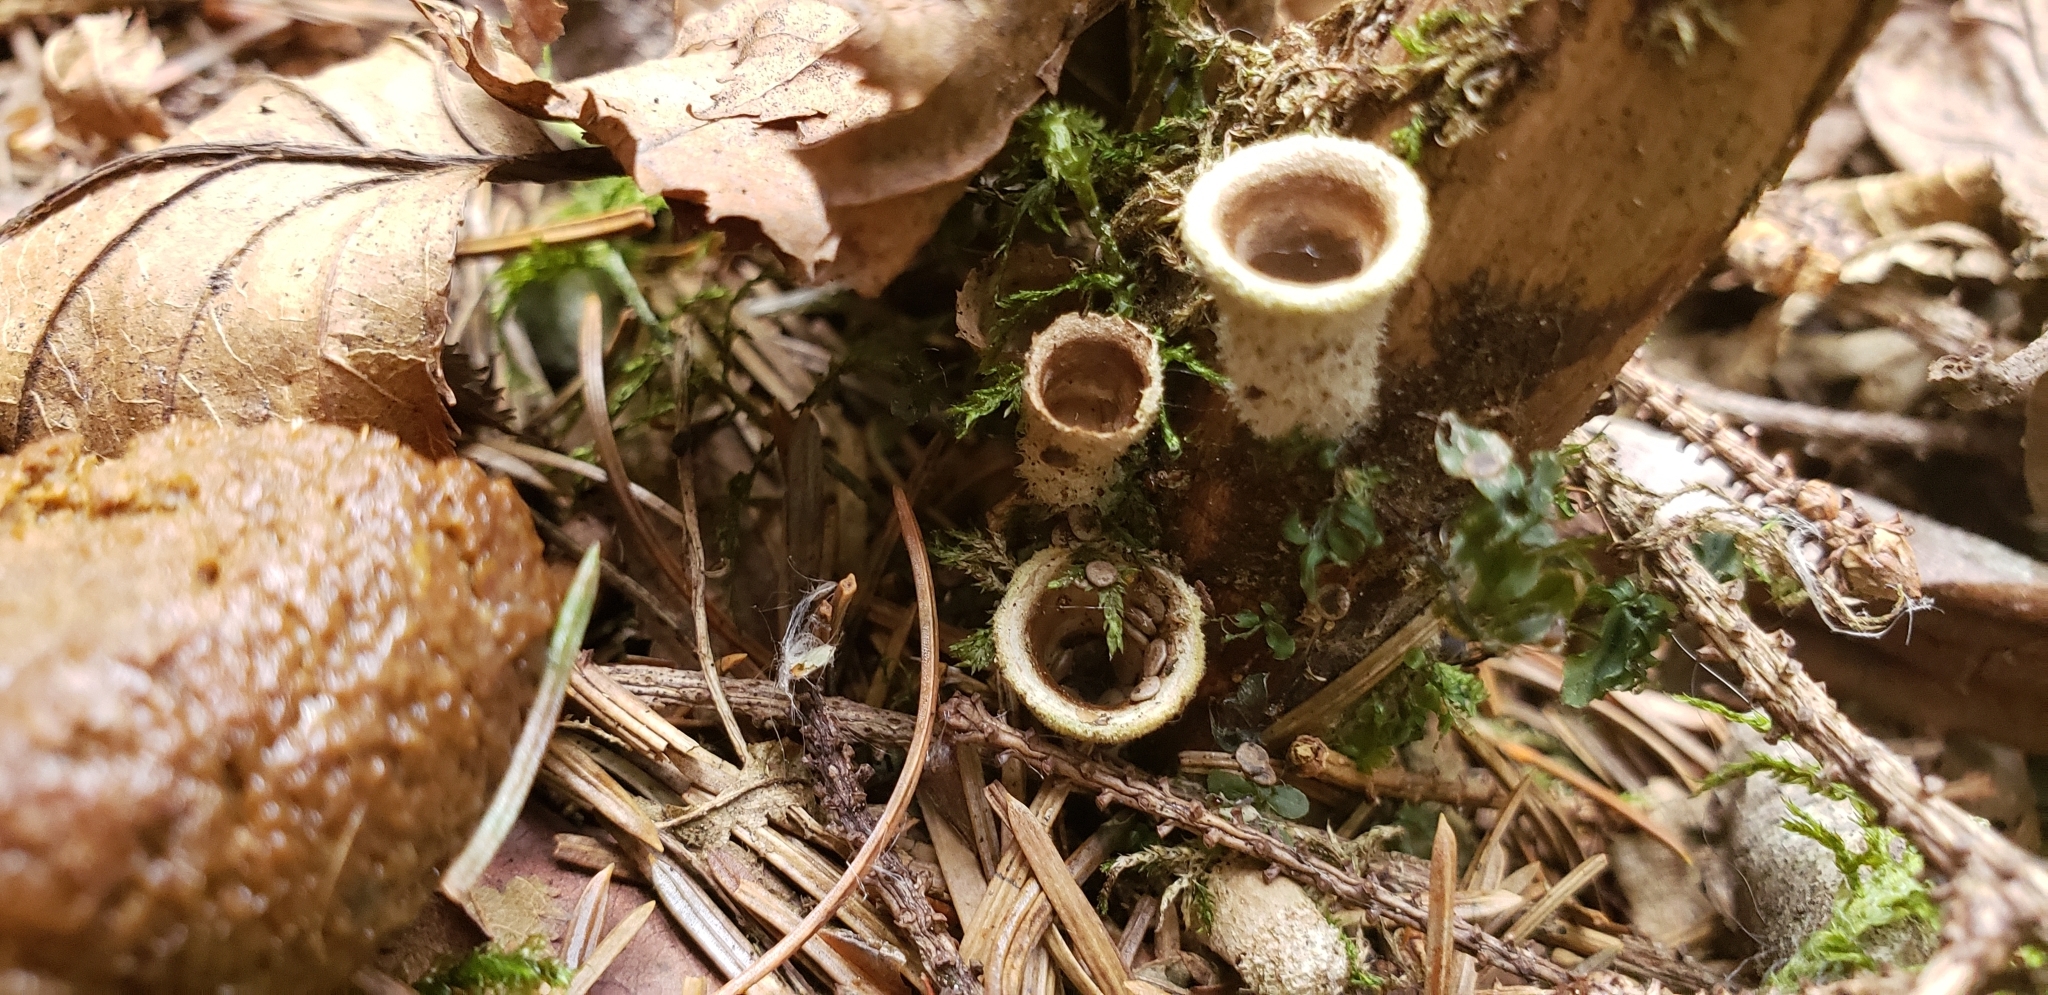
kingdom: Fungi
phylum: Basidiomycota
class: Agaricomycetes
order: Agaricales
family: Agaricaceae
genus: Nidula
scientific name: Nidula candida
